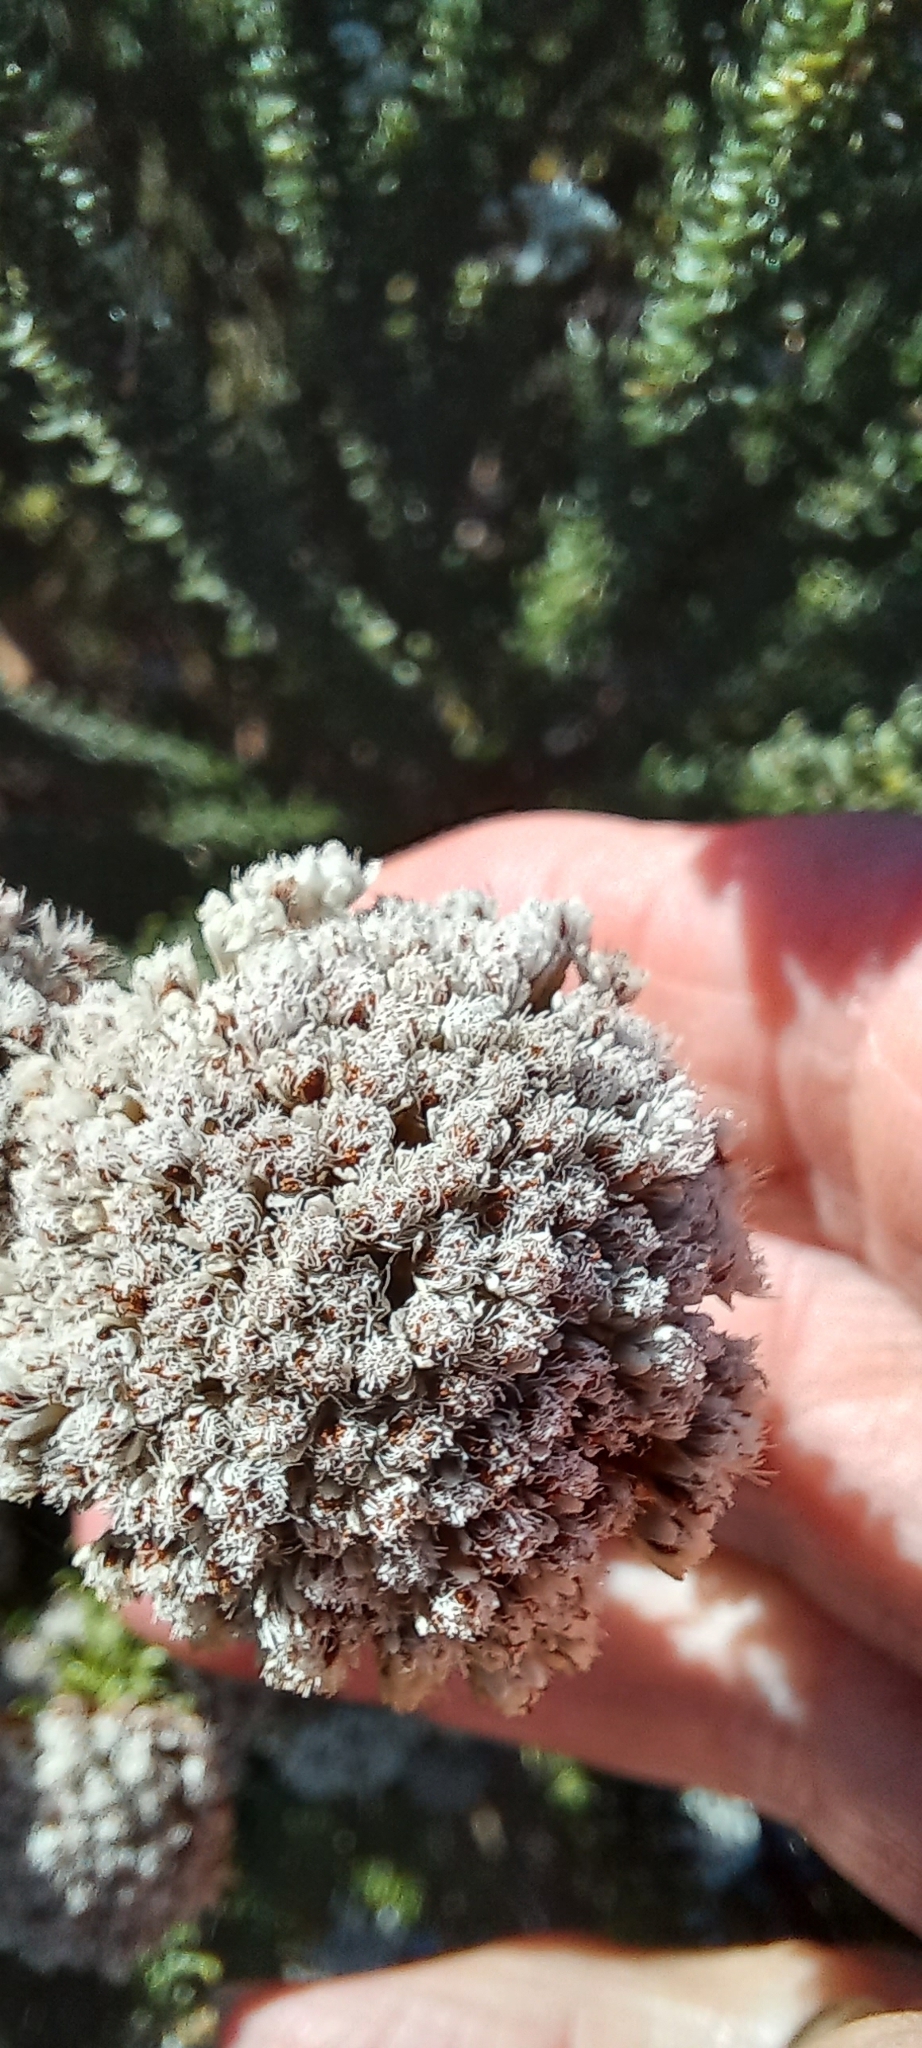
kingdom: Plantae
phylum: Tracheophyta
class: Magnoliopsida
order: Asterales
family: Asteraceae
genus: Metalasia
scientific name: Metalasia lichtensteinii
